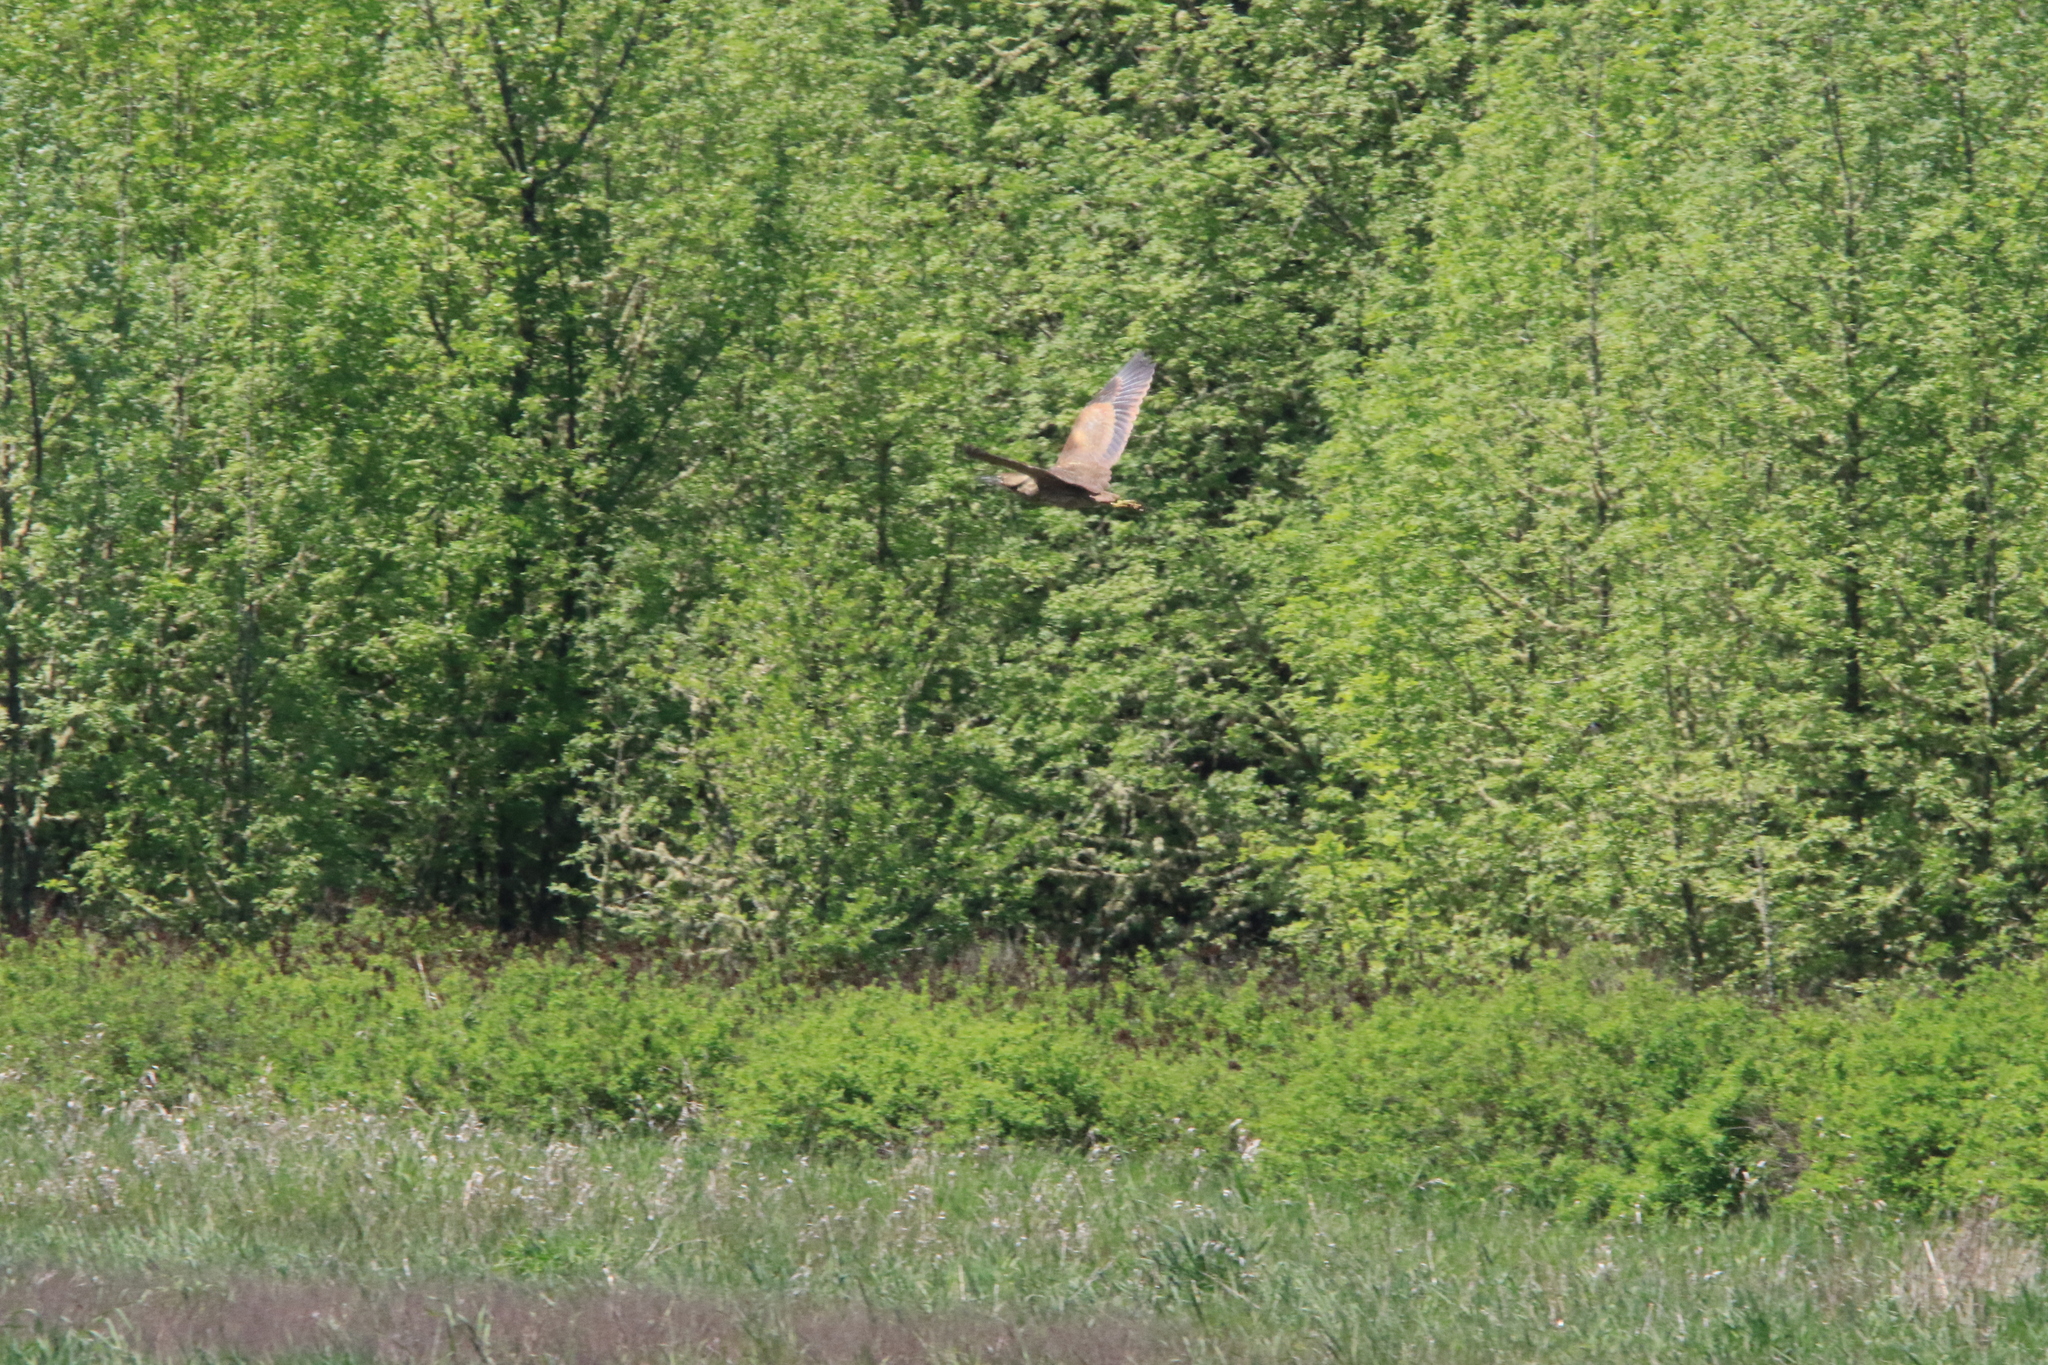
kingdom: Animalia
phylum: Chordata
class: Aves
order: Pelecaniformes
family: Ardeidae
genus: Botaurus
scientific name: Botaurus lentiginosus
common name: American bittern
